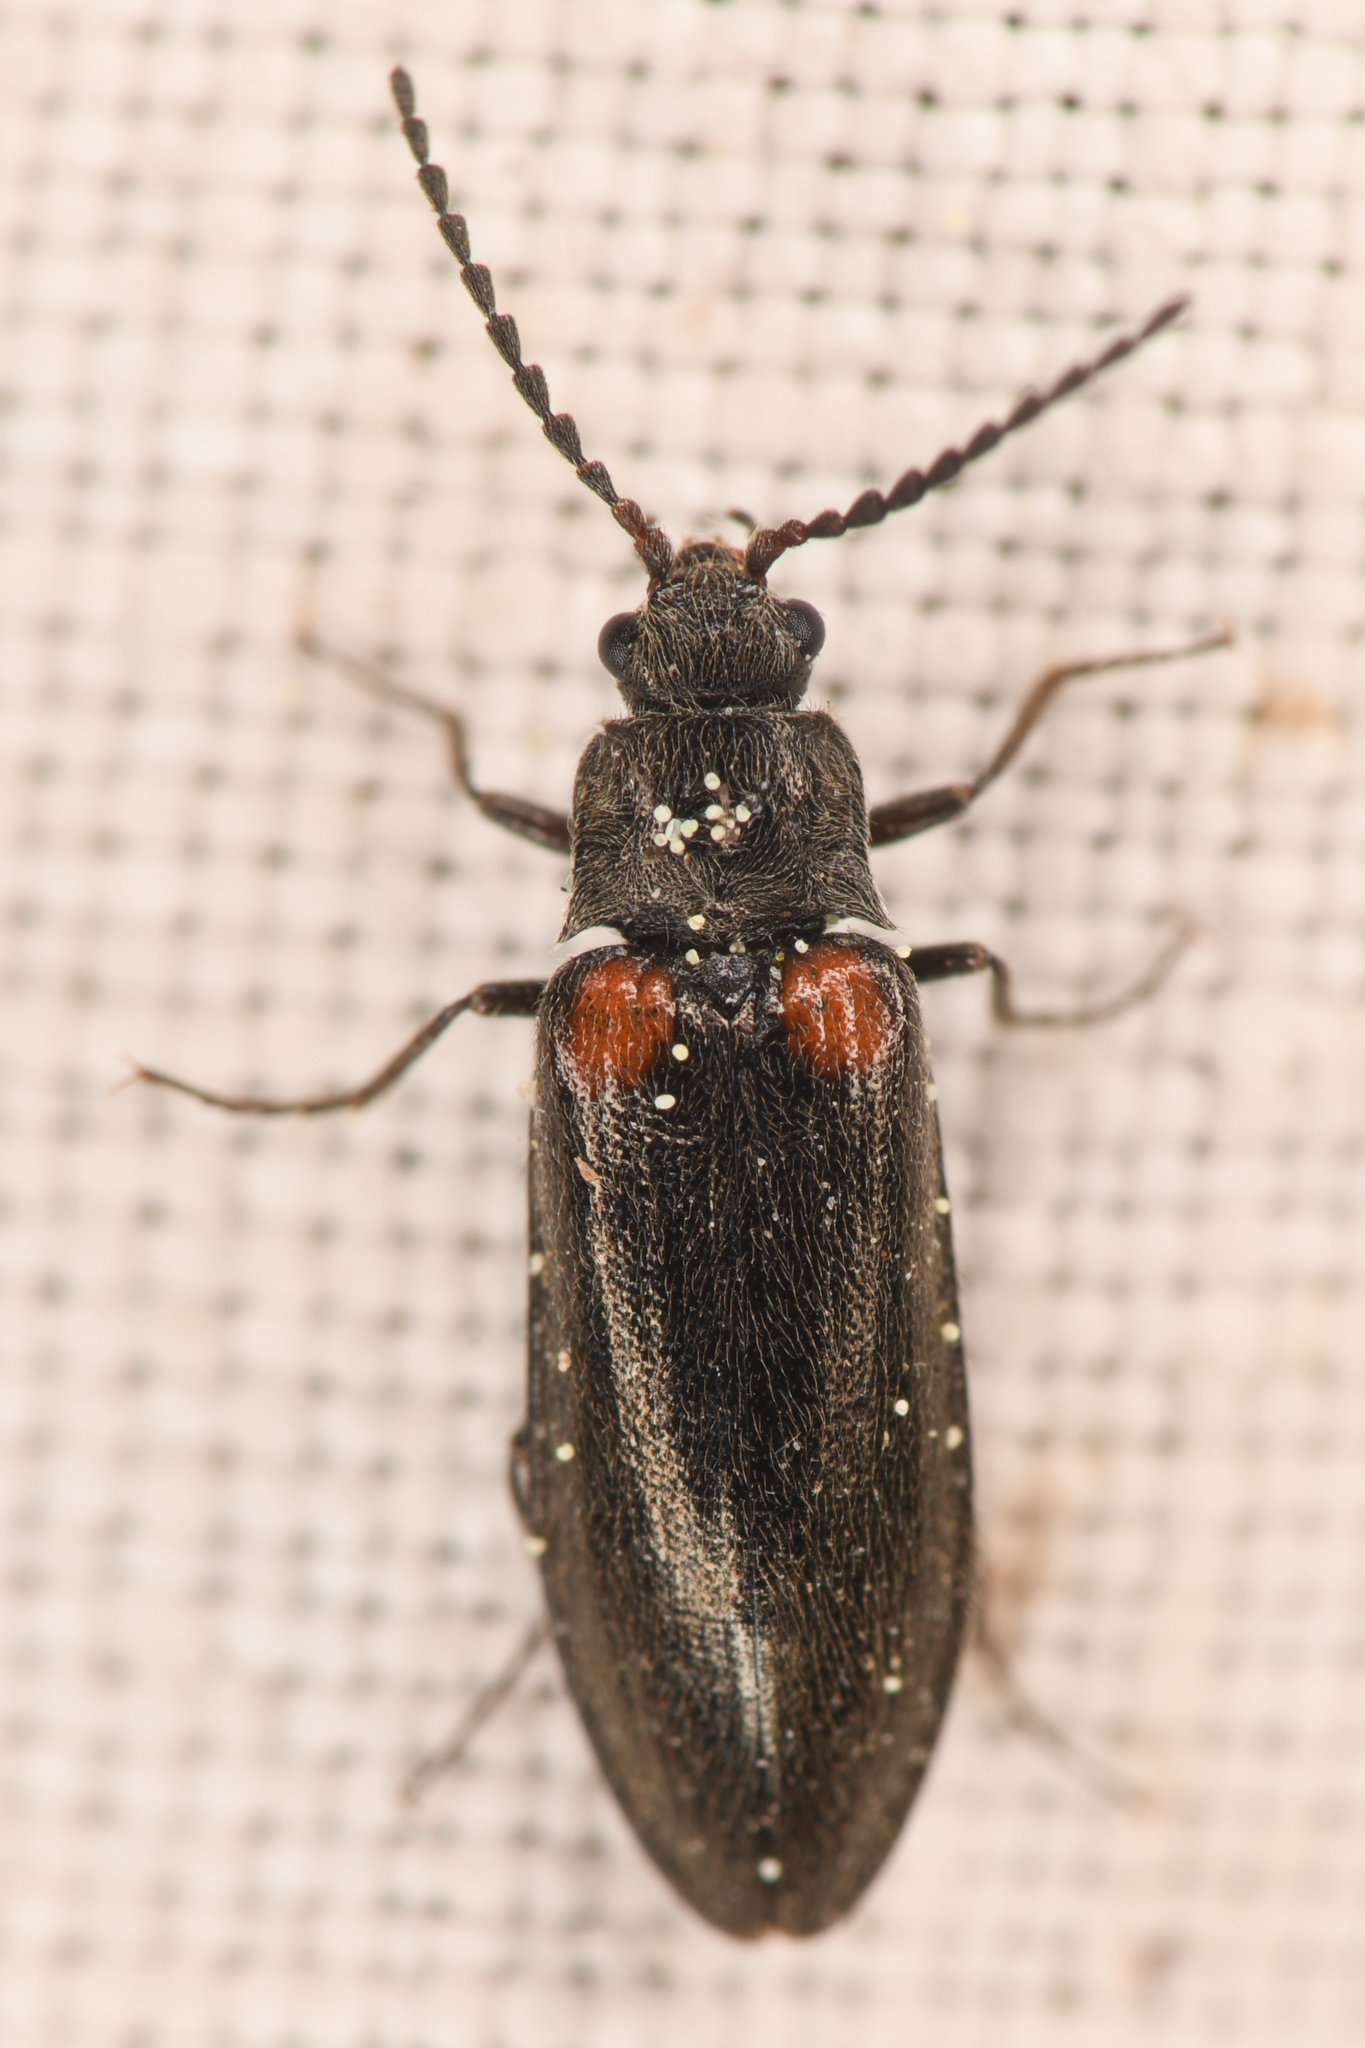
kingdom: Animalia
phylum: Arthropoda
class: Insecta
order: Coleoptera
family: Elateridae
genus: Eanus
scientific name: Eanus estriatus
